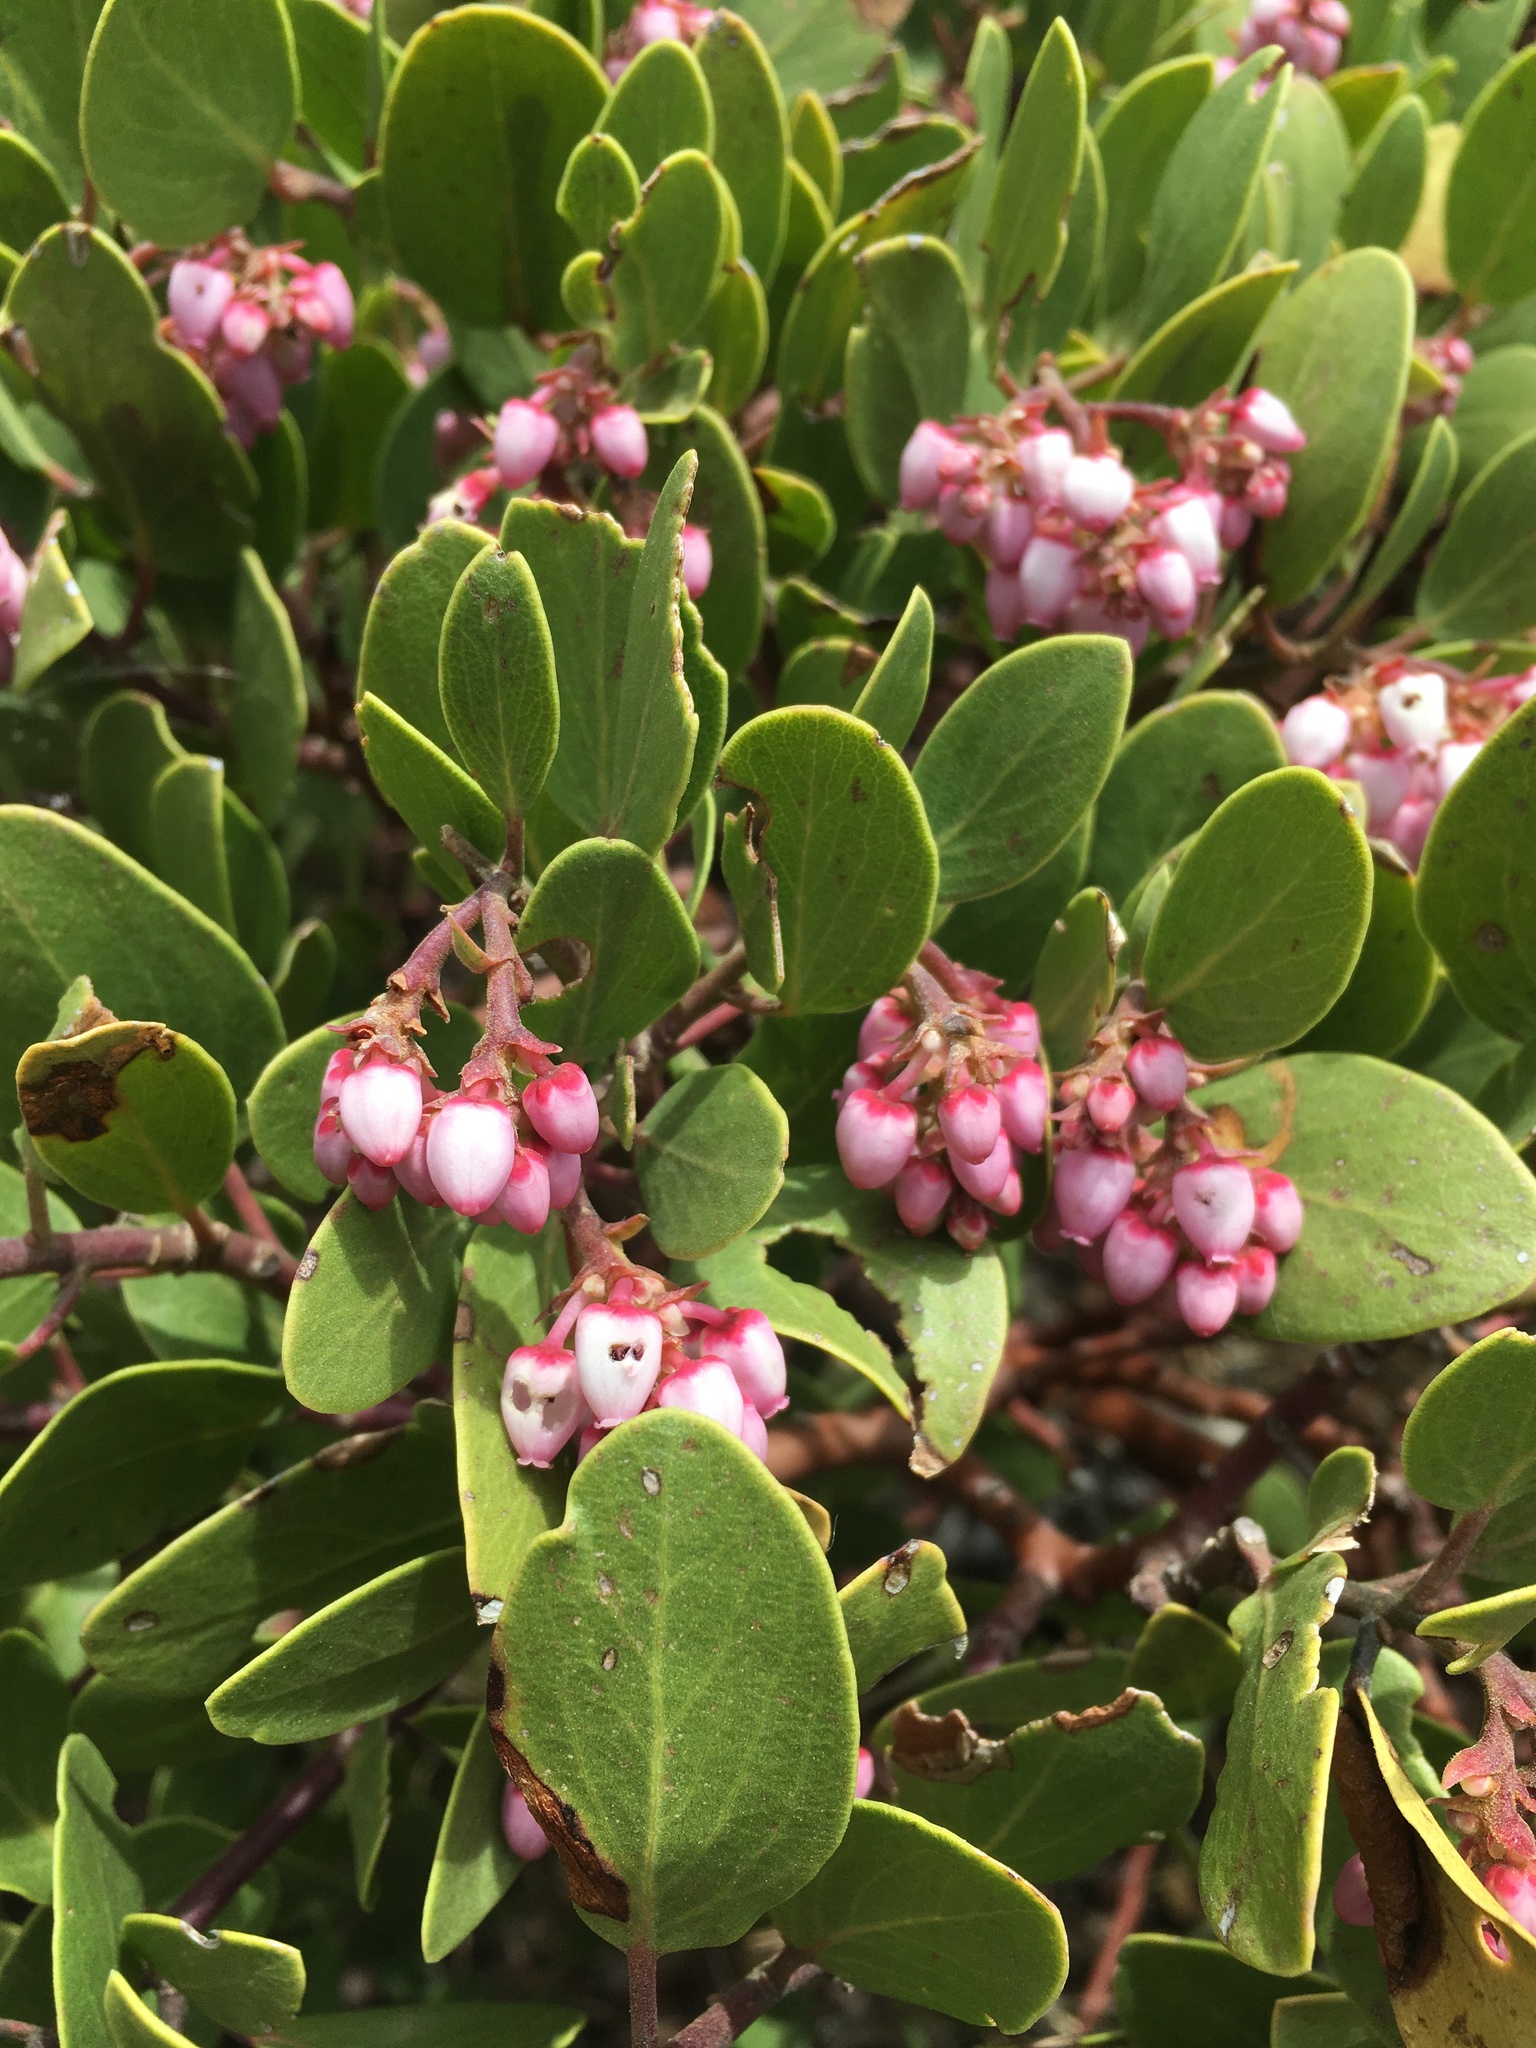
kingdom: Plantae
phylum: Tracheophyta
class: Magnoliopsida
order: Ericales
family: Ericaceae
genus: Arctostaphylos
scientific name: Arctostaphylos patula
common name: Green-leaf manzanita
